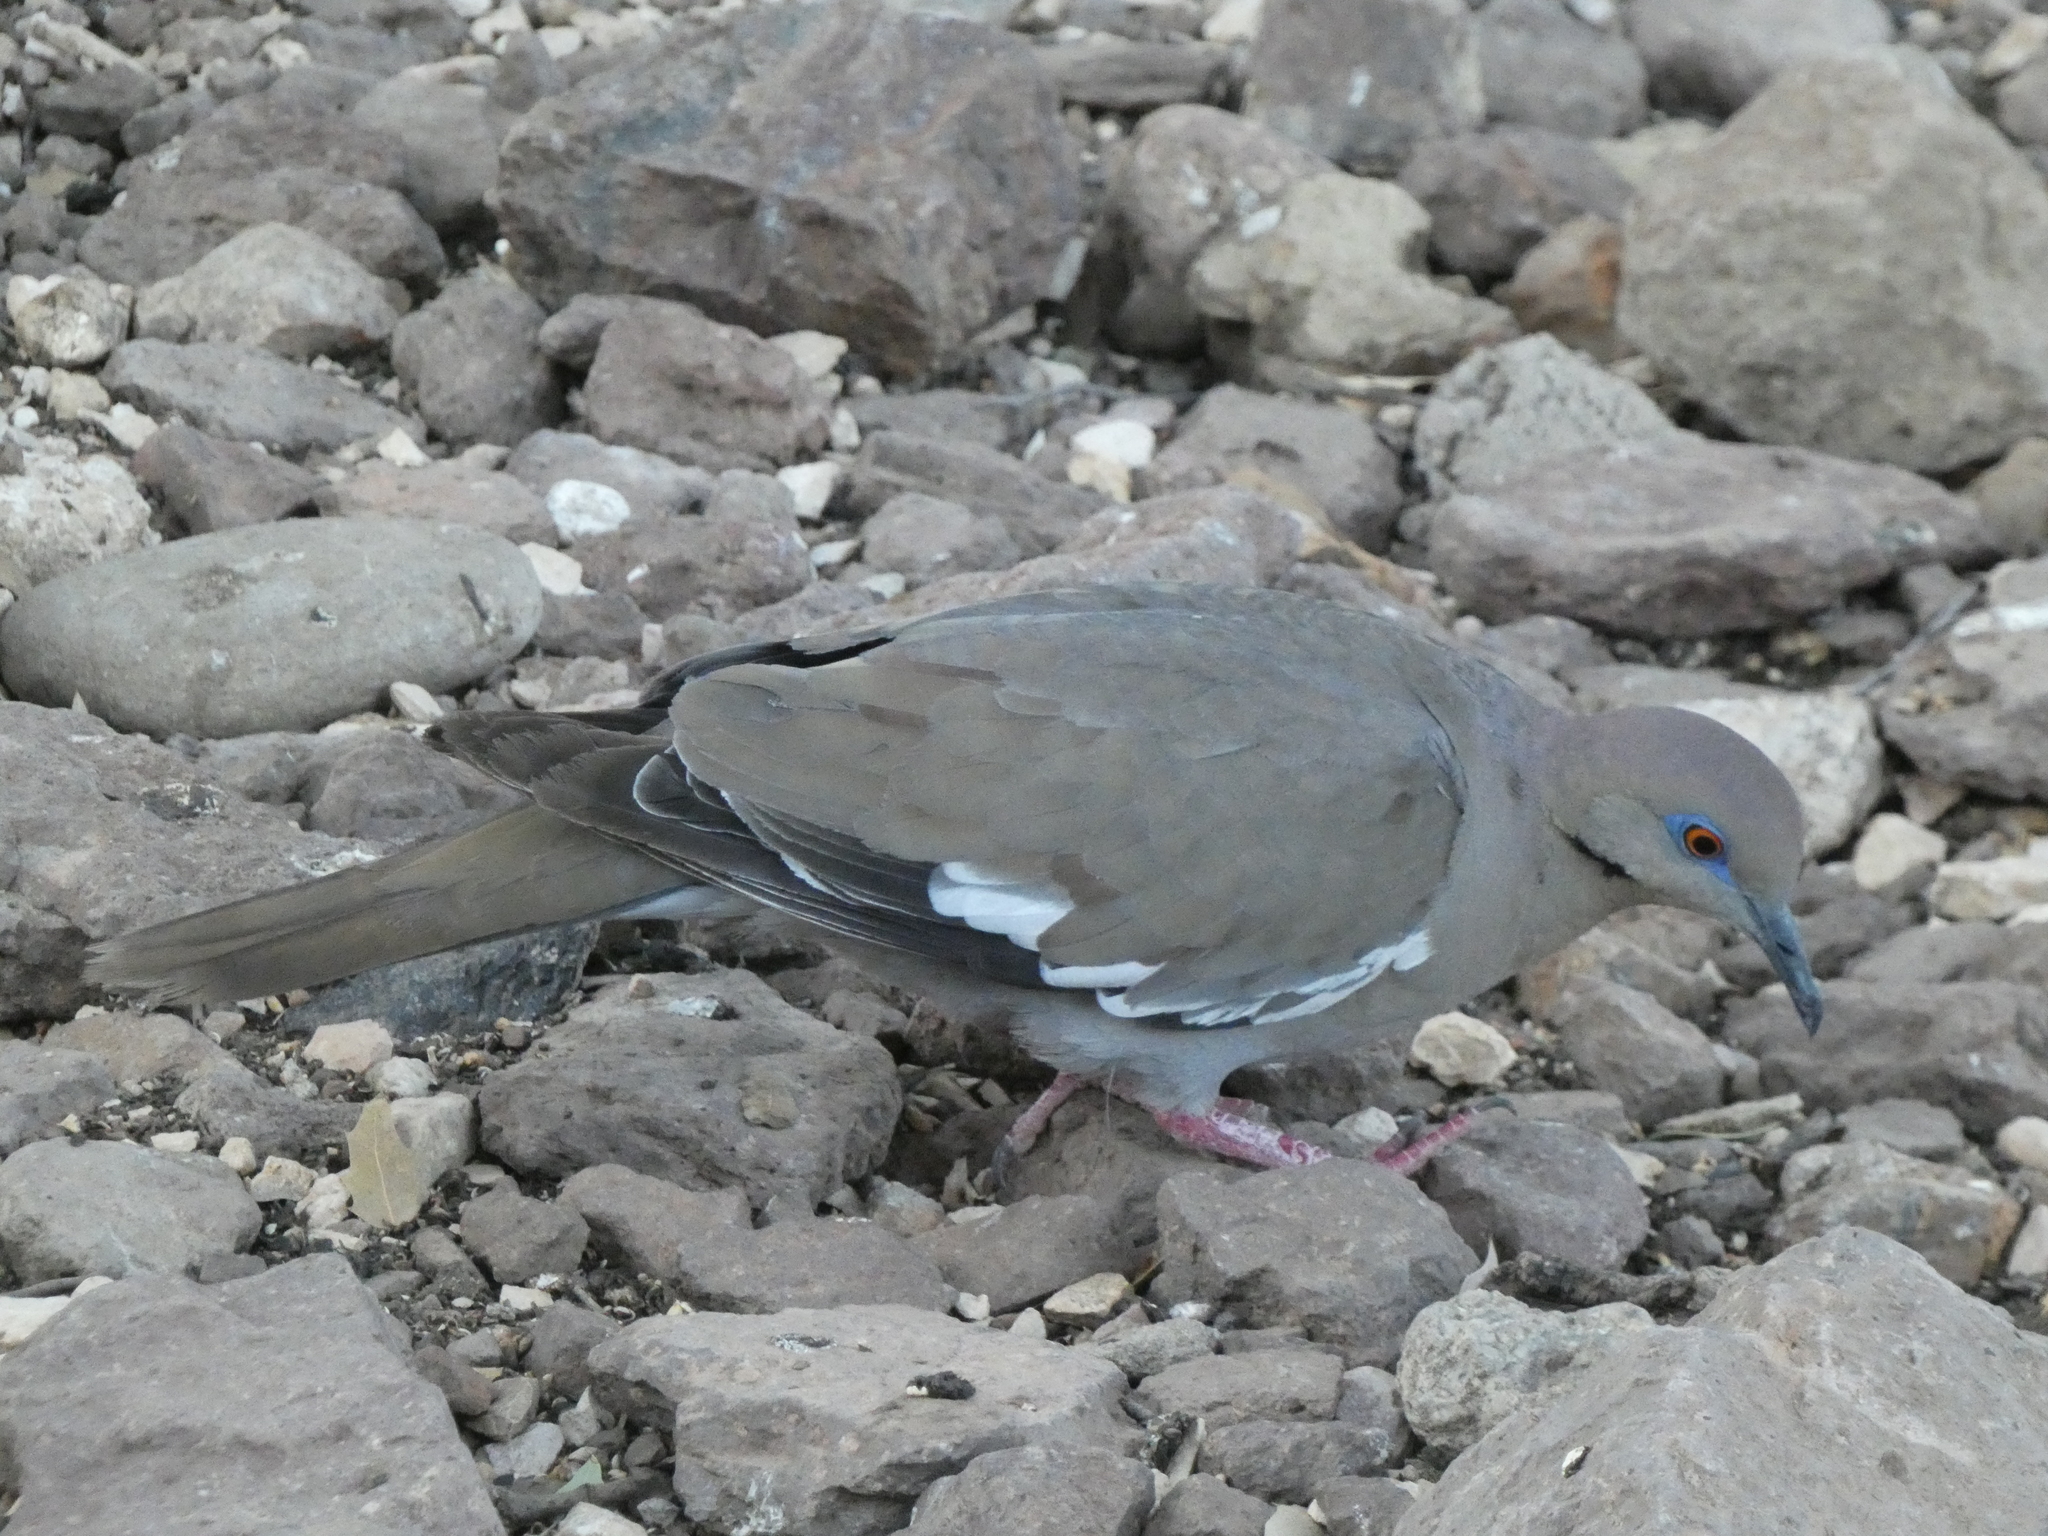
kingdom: Animalia
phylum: Chordata
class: Aves
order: Columbiformes
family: Columbidae
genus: Zenaida
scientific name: Zenaida asiatica
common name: White-winged dove
